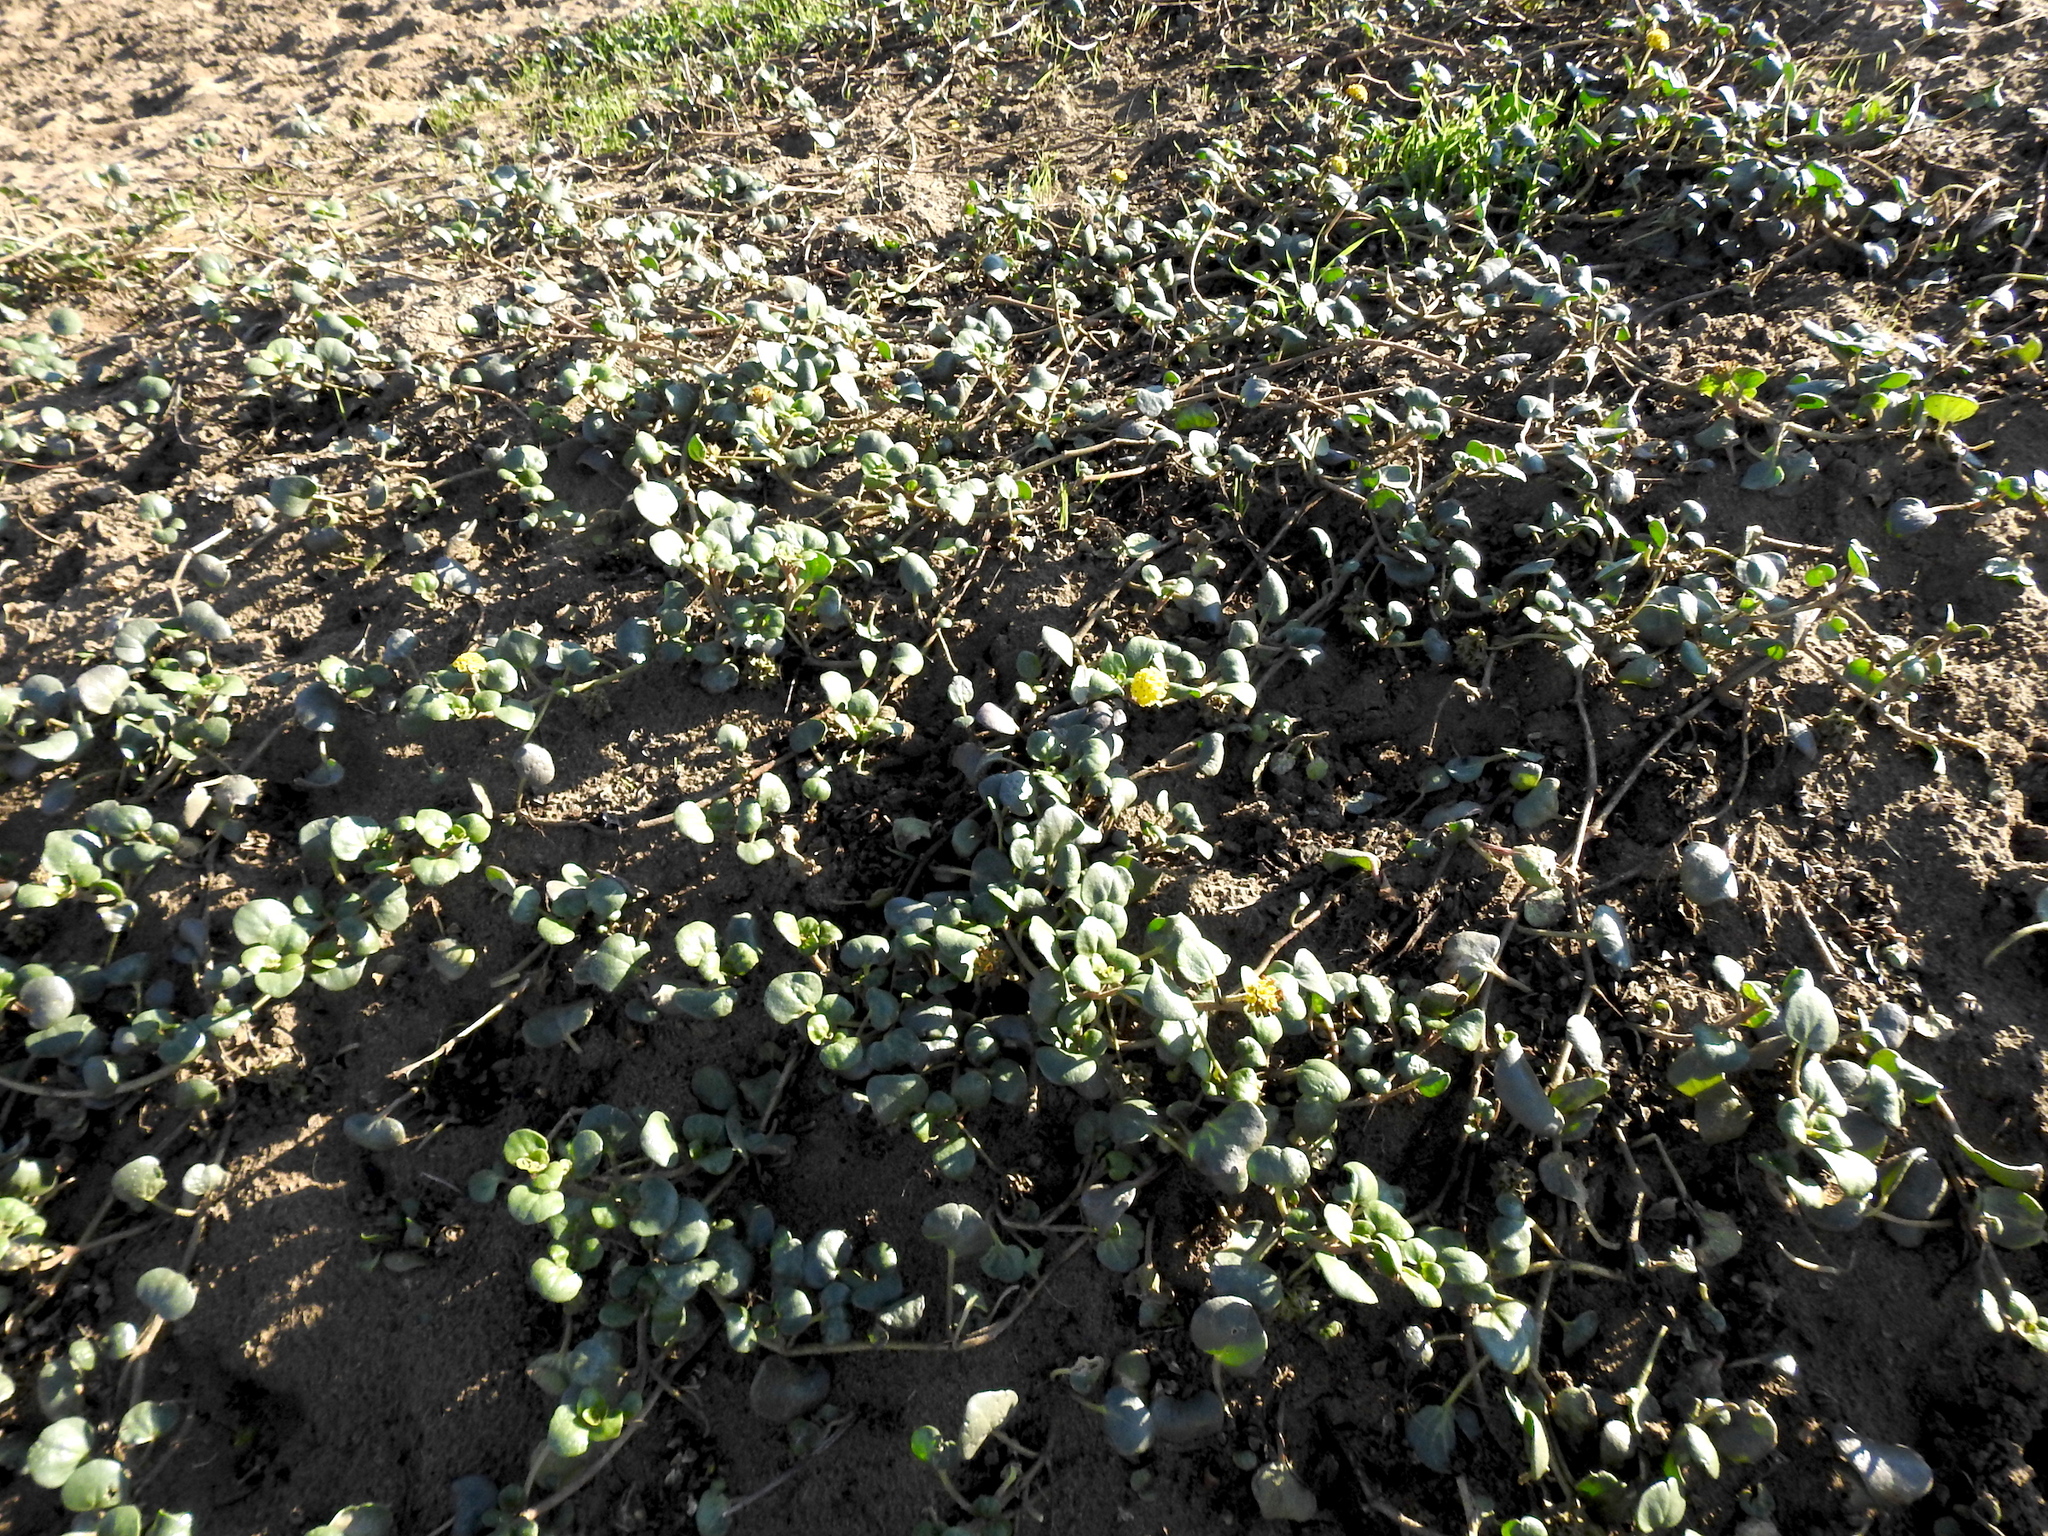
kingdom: Plantae
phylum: Tracheophyta
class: Magnoliopsida
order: Caryophyllales
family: Nyctaginaceae
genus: Abronia
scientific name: Abronia latifolia
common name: Yellow sand-verbena
